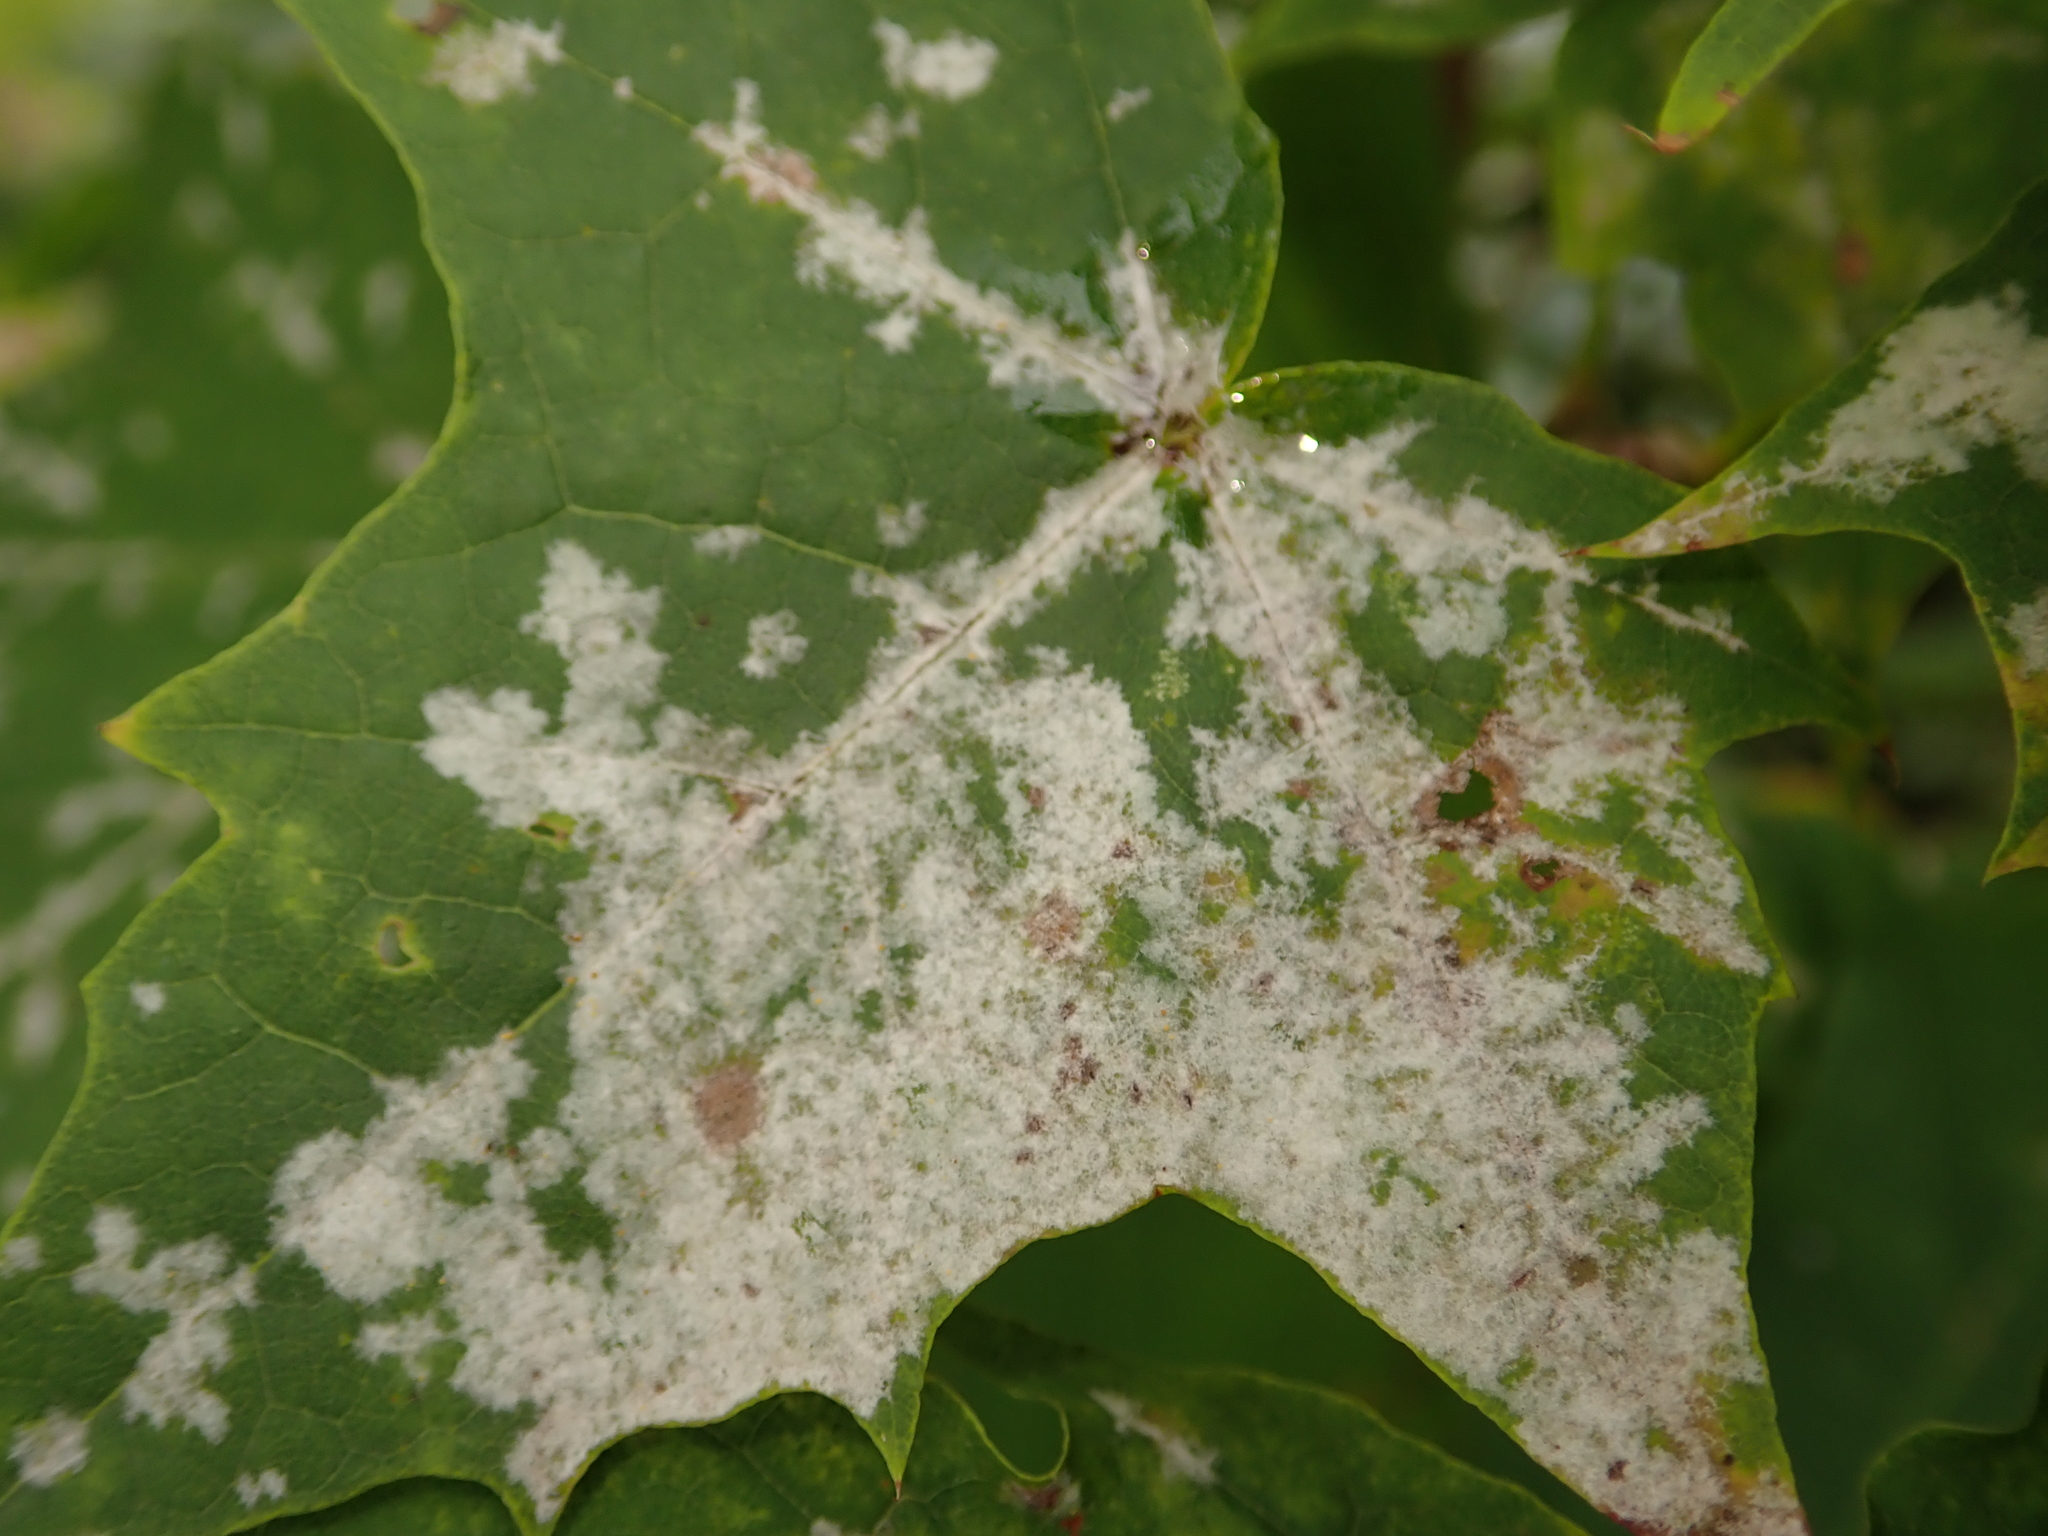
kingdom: Fungi
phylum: Ascomycota
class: Leotiomycetes
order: Helotiales
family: Erysiphaceae
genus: Sawadaea
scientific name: Sawadaea tulasnei
